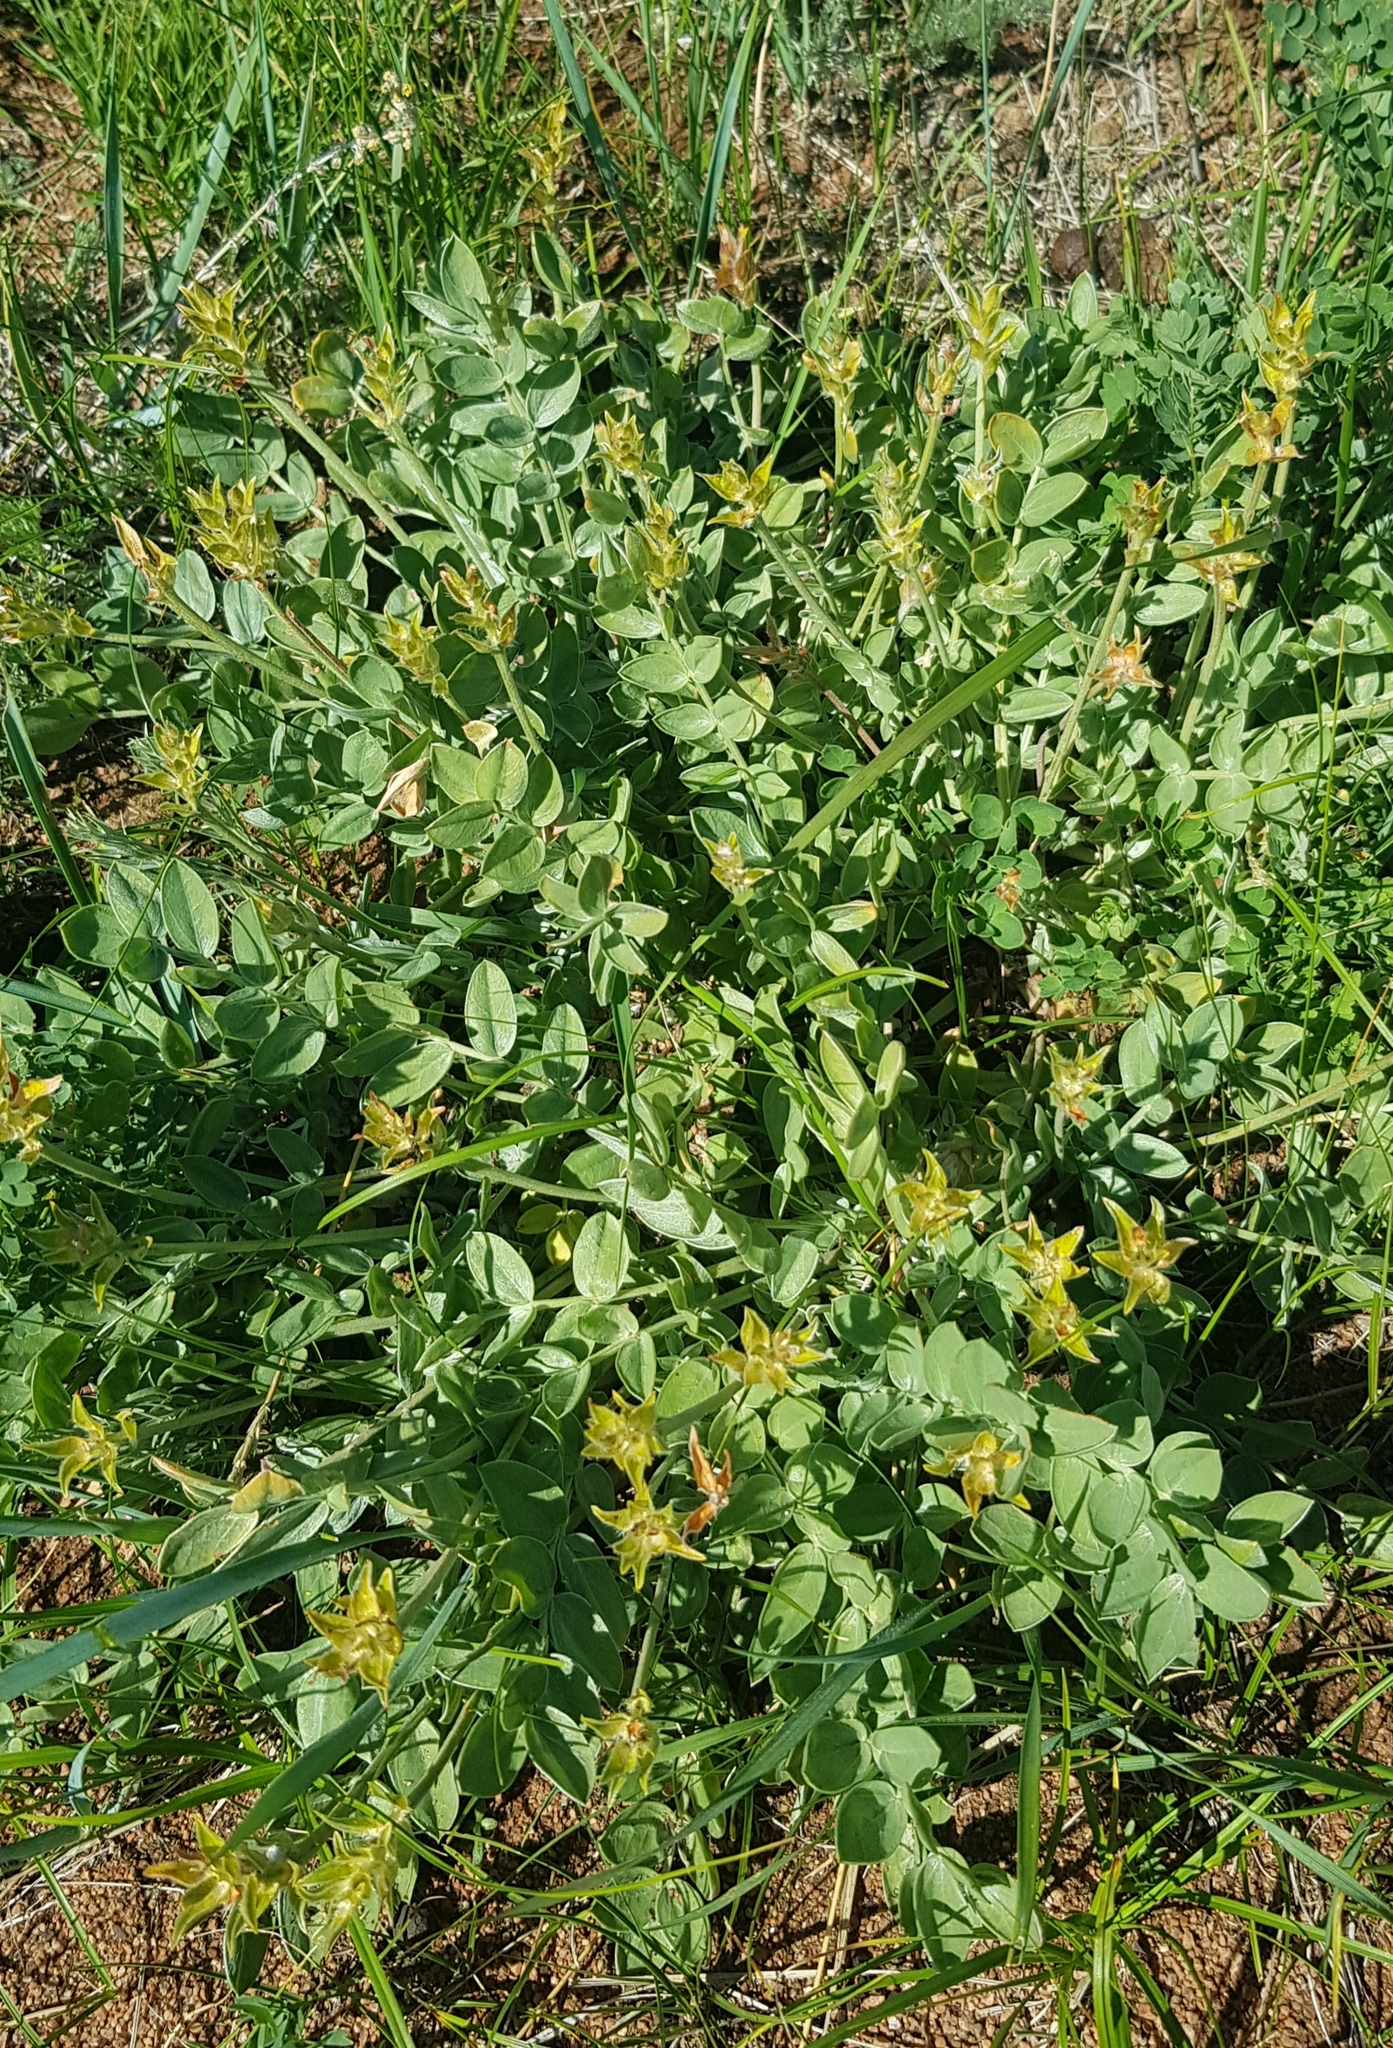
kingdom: Plantae
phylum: Tracheophyta
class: Magnoliopsida
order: Fabales
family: Fabaceae
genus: Astragalus
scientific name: Astragalus frigidus
